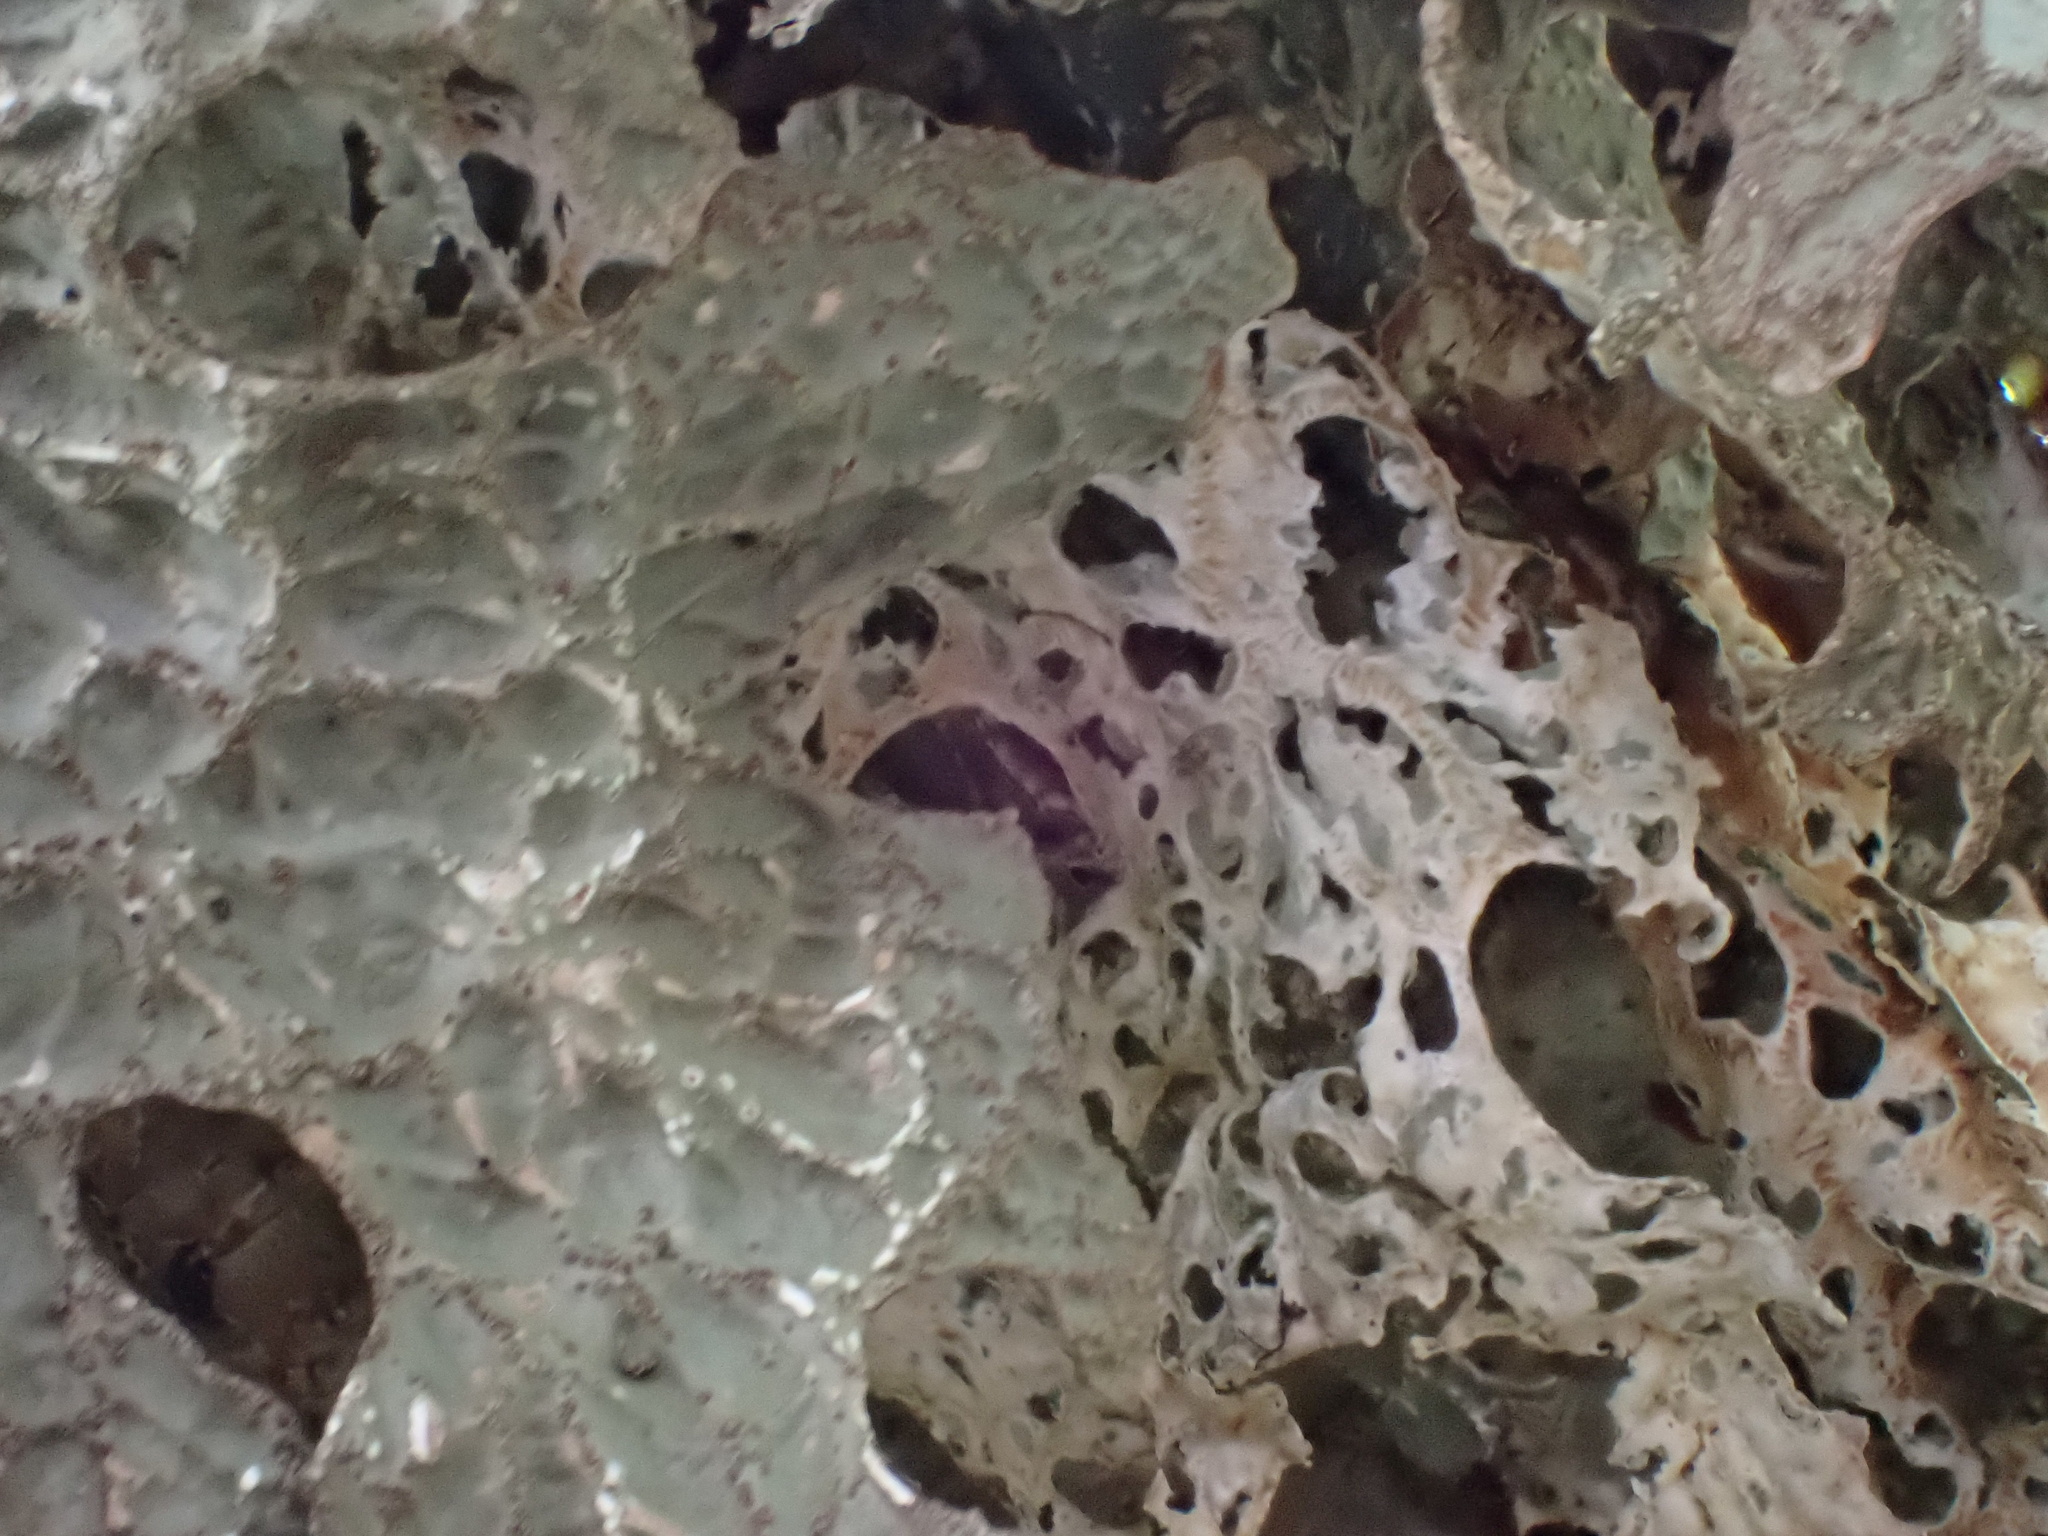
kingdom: Fungi
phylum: Ascomycota
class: Lecanoromycetes
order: Peltigerales
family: Lobariaceae
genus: Lobaria
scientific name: Lobaria pulmonaria
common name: Lungwort
